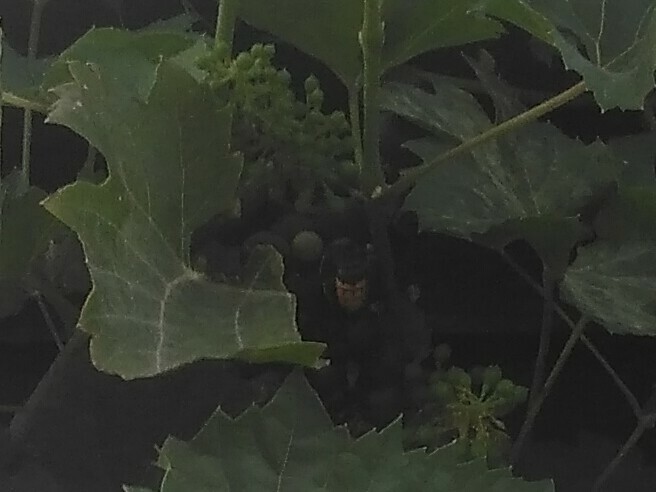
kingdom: Animalia
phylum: Arthropoda
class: Insecta
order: Hymenoptera
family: Vespidae
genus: Vespa
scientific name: Vespa crabro
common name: Hornet
